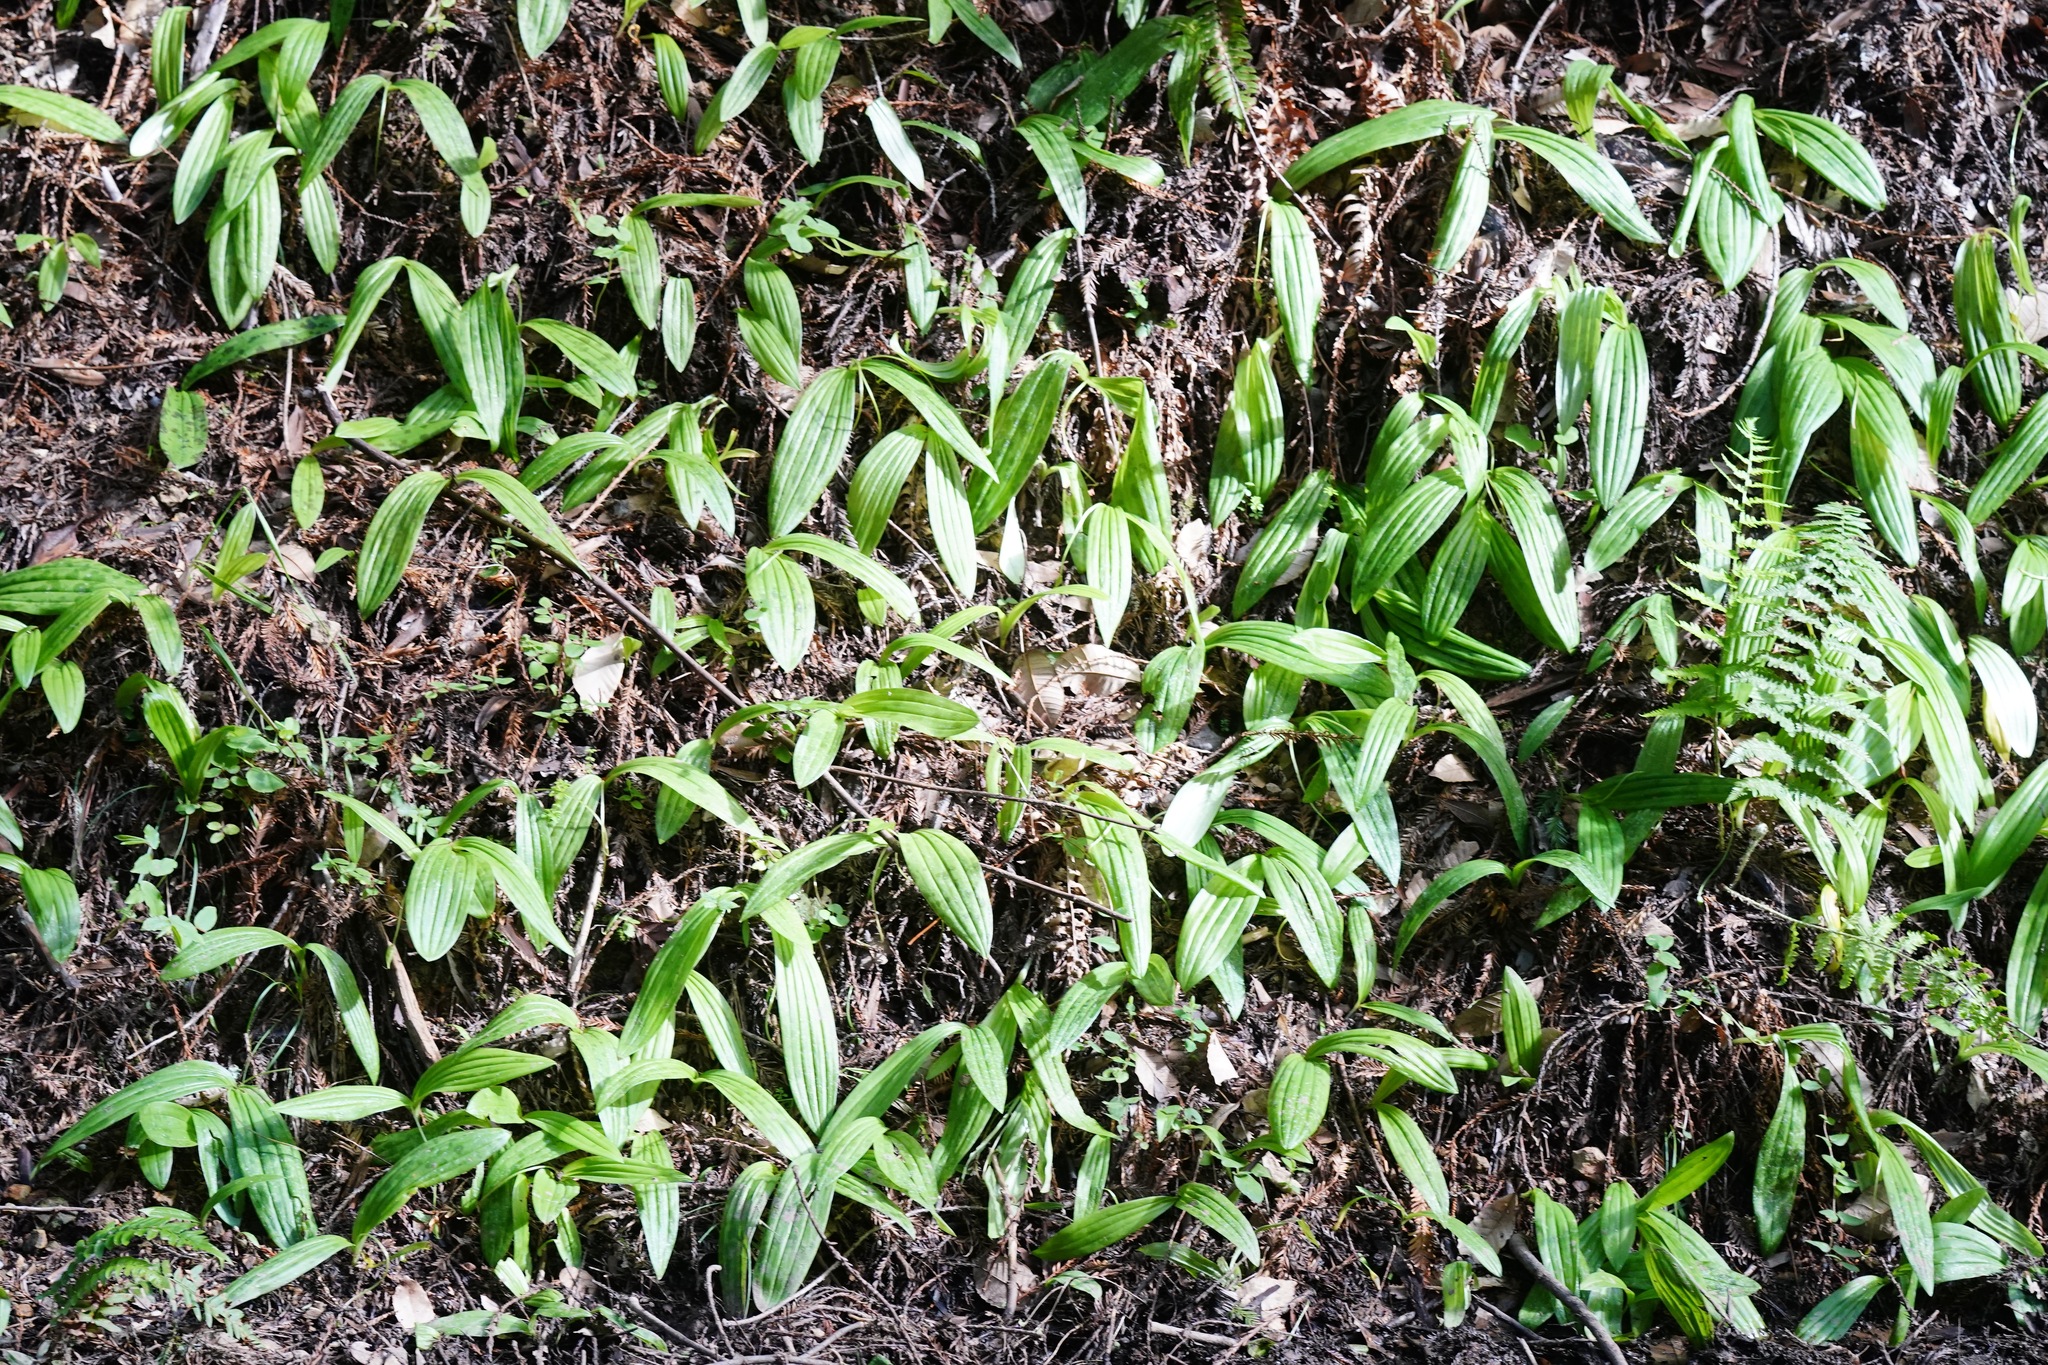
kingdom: Plantae
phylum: Tracheophyta
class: Liliopsida
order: Liliales
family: Liliaceae
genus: Scoliopus
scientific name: Scoliopus bigelovii
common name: Foetid adder's-tongue
